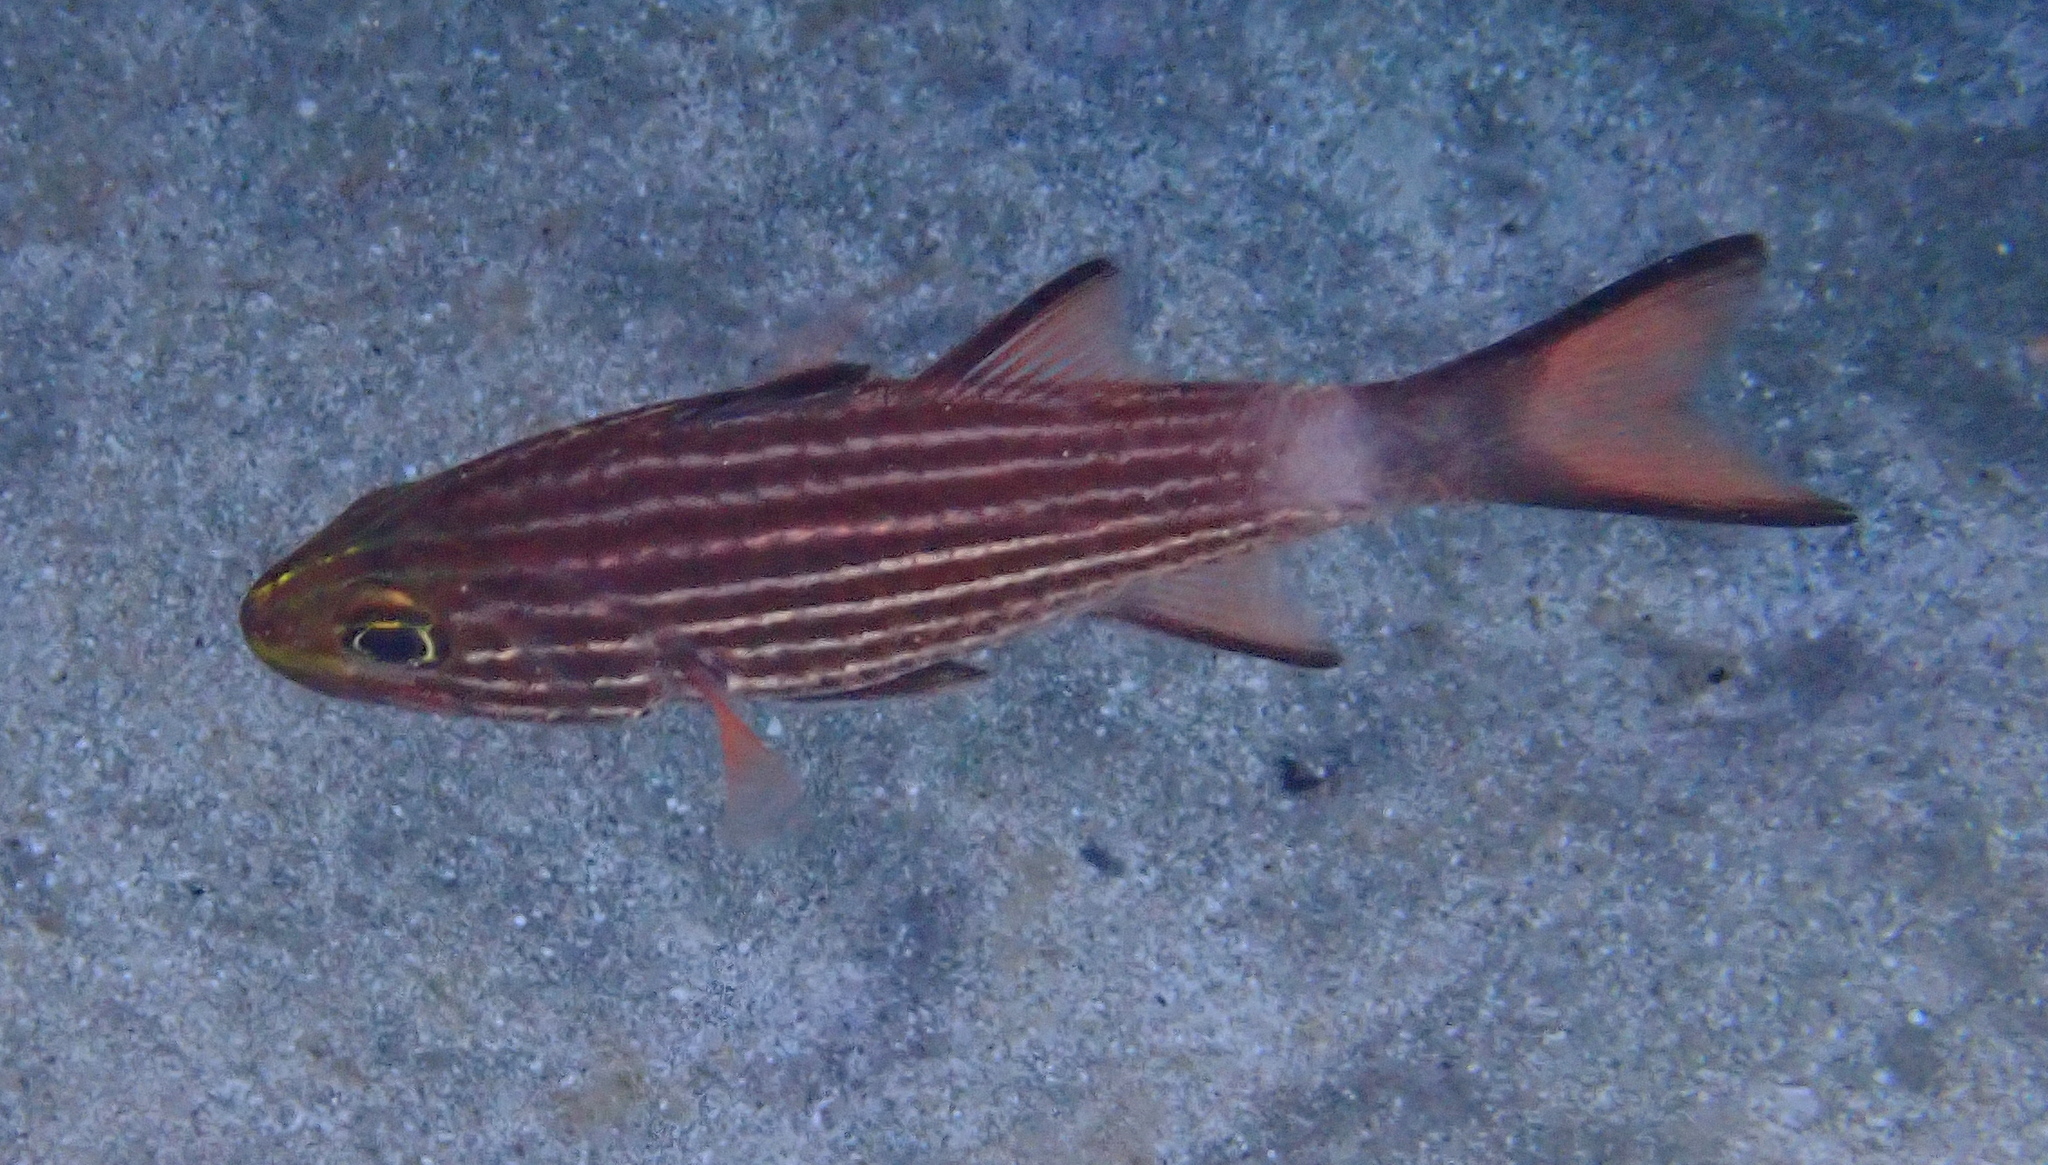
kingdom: Animalia
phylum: Chordata
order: Perciformes
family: Apogonidae
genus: Cheilodipterus
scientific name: Cheilodipterus macrodon
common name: Eight-lined cardinalfish
